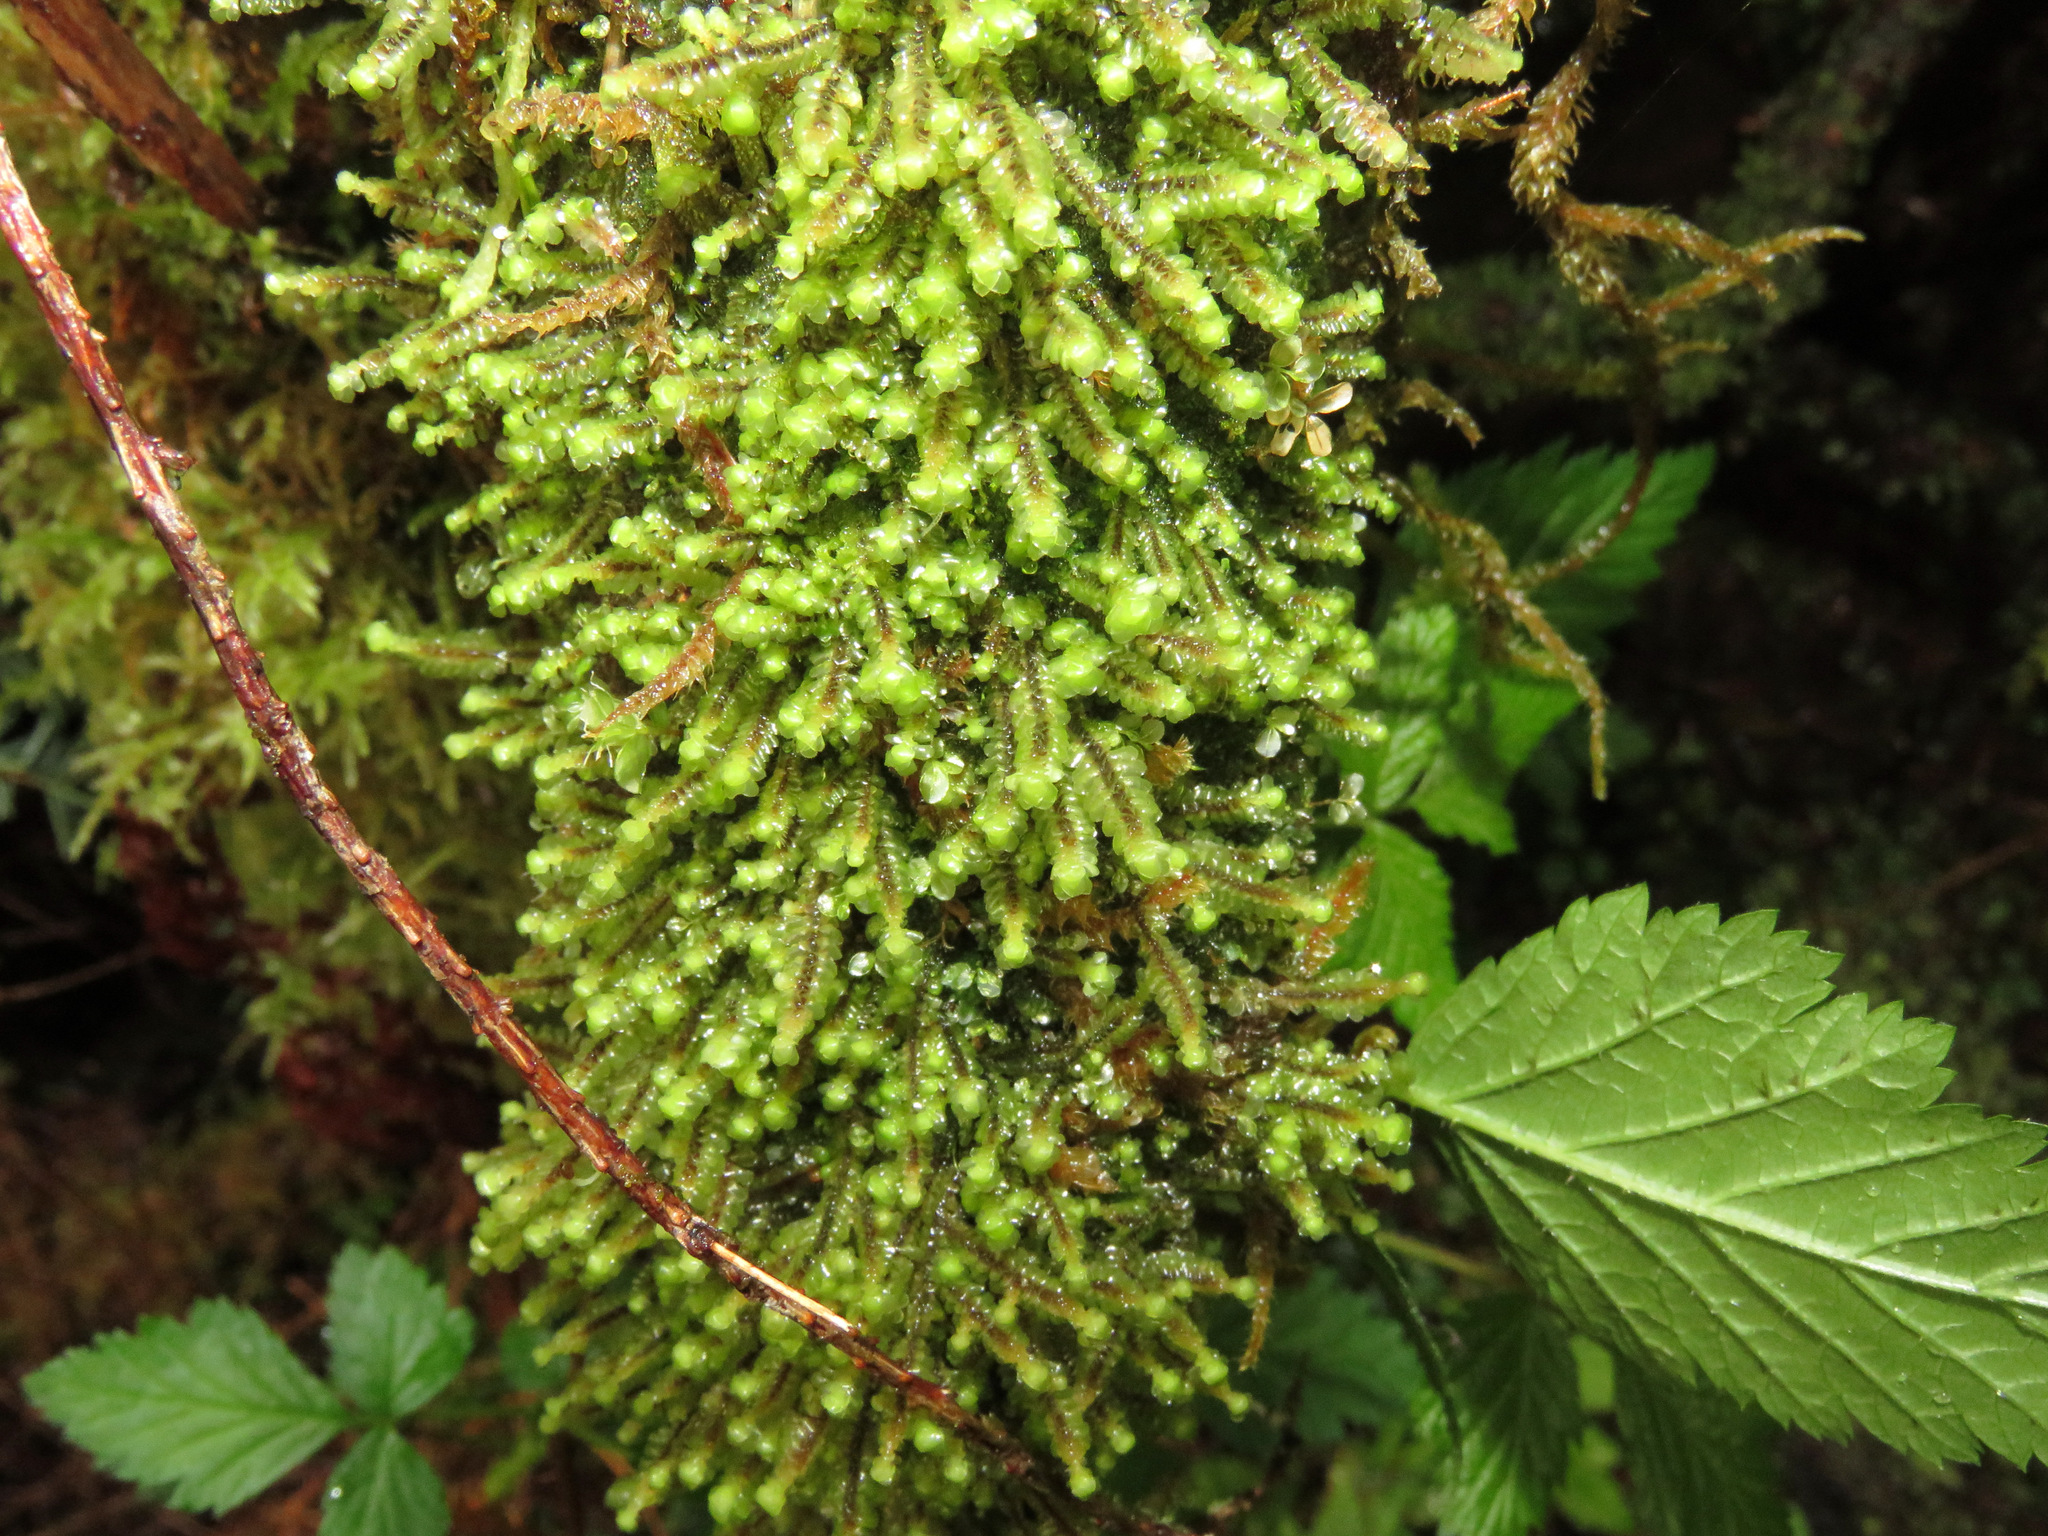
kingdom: Plantae
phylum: Marchantiophyta
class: Jungermanniopsida
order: Jungermanniales
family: Scapaniaceae
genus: Scapania
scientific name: Scapania bolanderi
